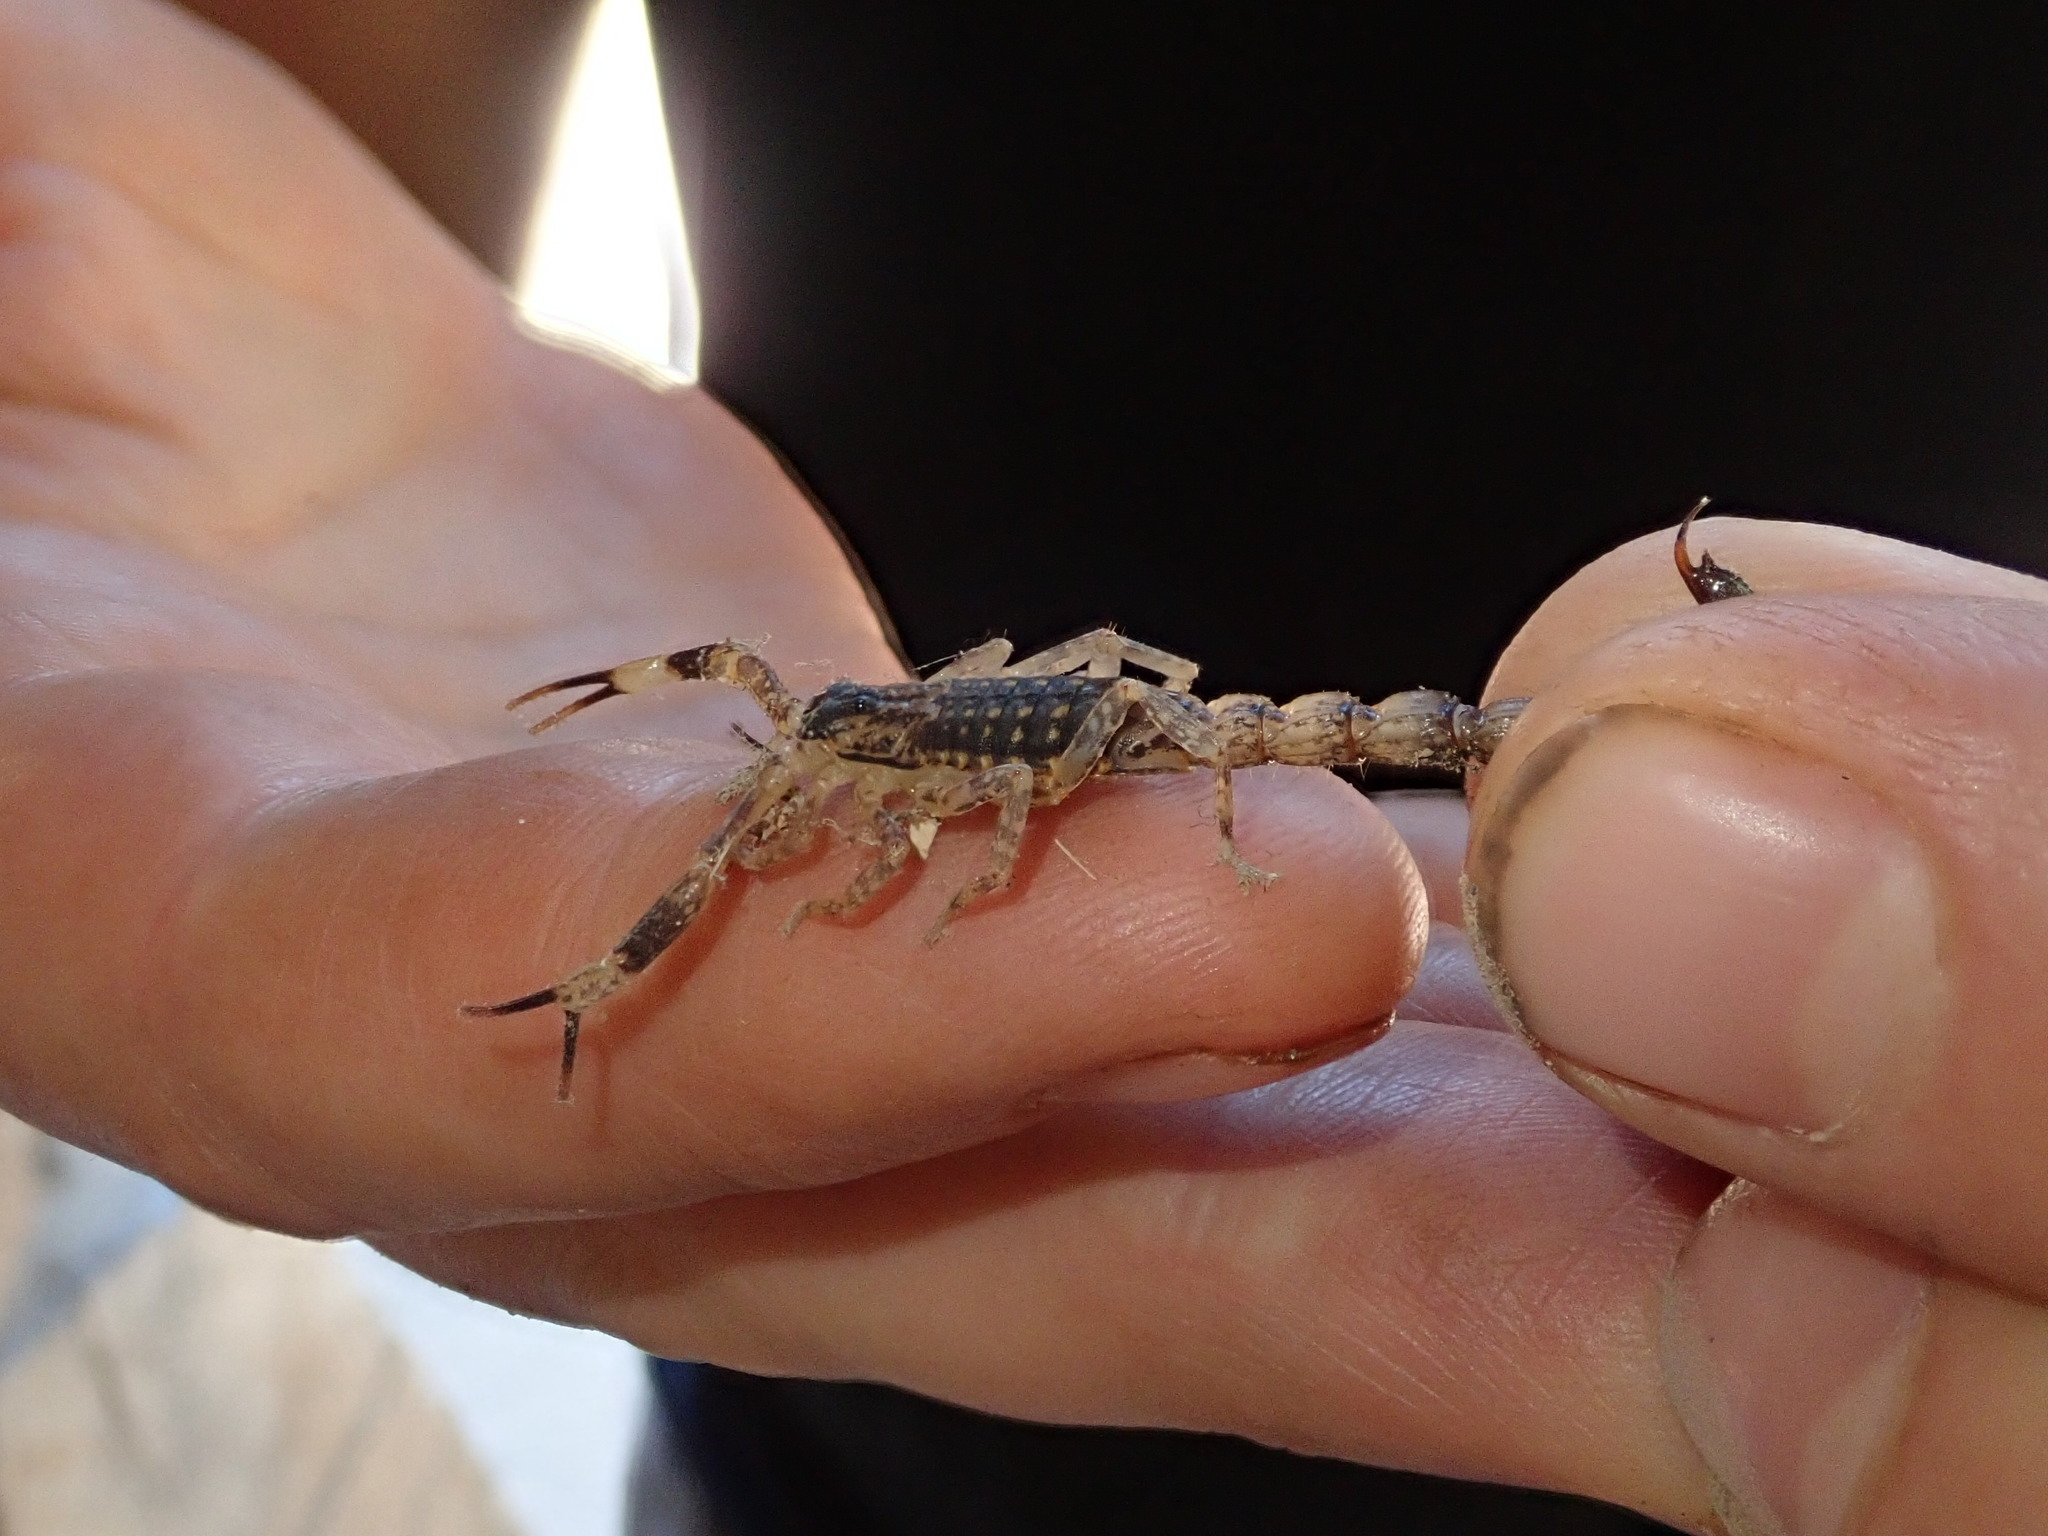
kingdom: Animalia
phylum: Arthropoda
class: Arachnida
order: Scorpiones
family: Buthidae
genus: Lychas
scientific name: Lychas mucronatus
